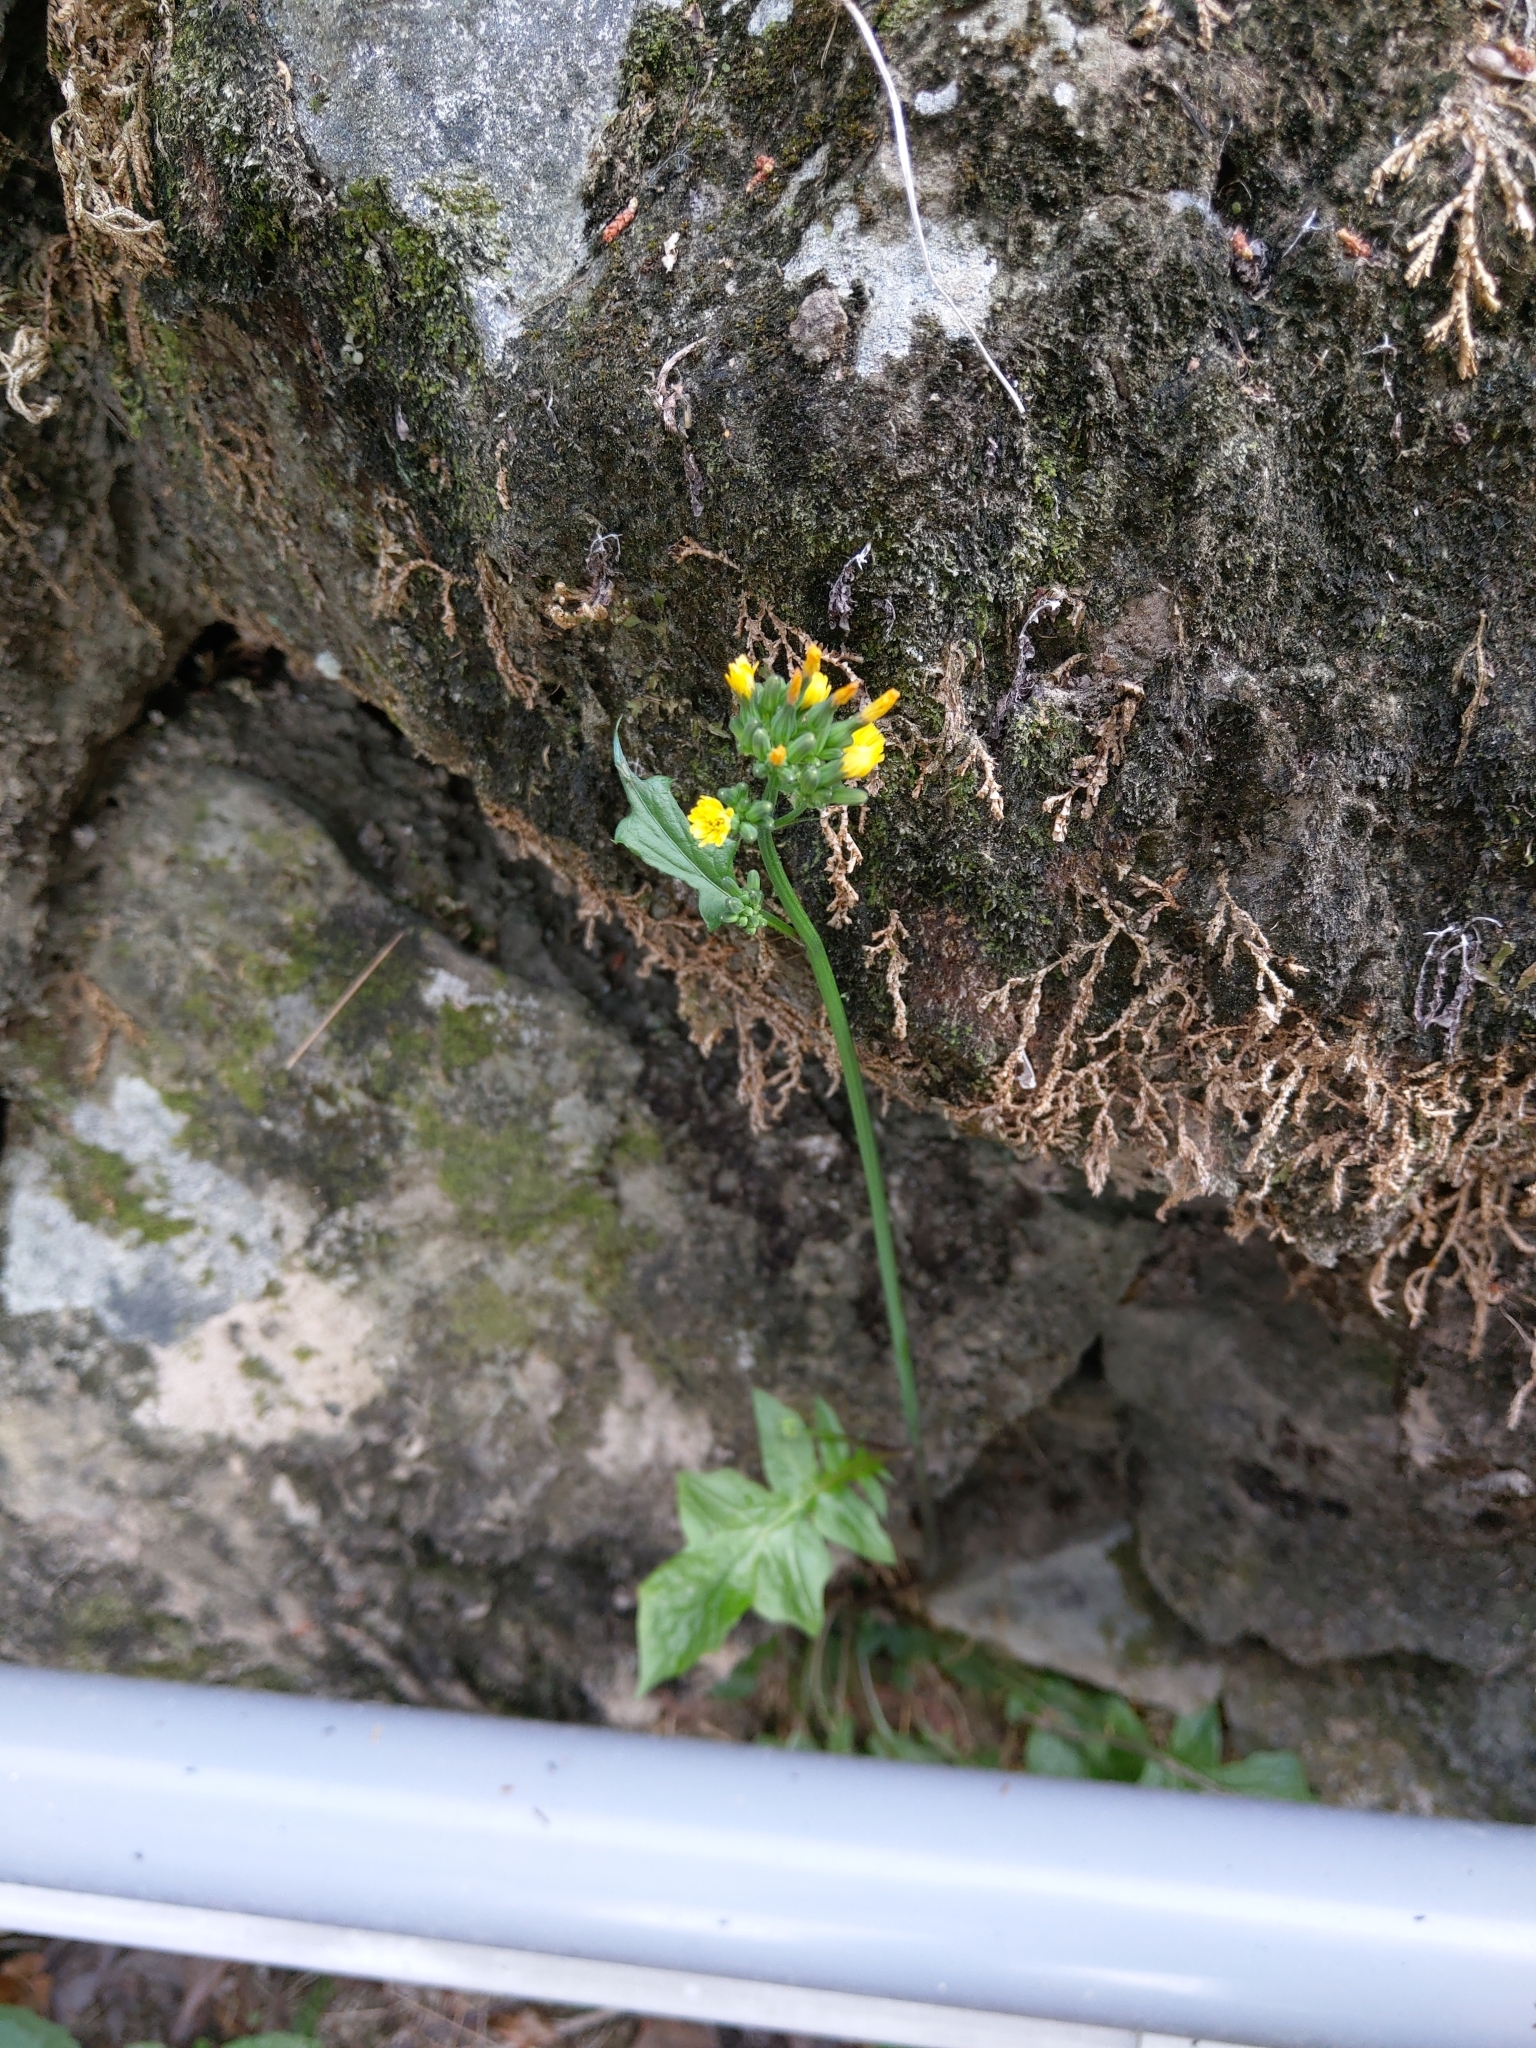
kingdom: Plantae
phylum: Tracheophyta
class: Magnoliopsida
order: Asterales
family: Asteraceae
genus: Youngia
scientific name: Youngia japonica
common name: Oriental false hawksbeard
